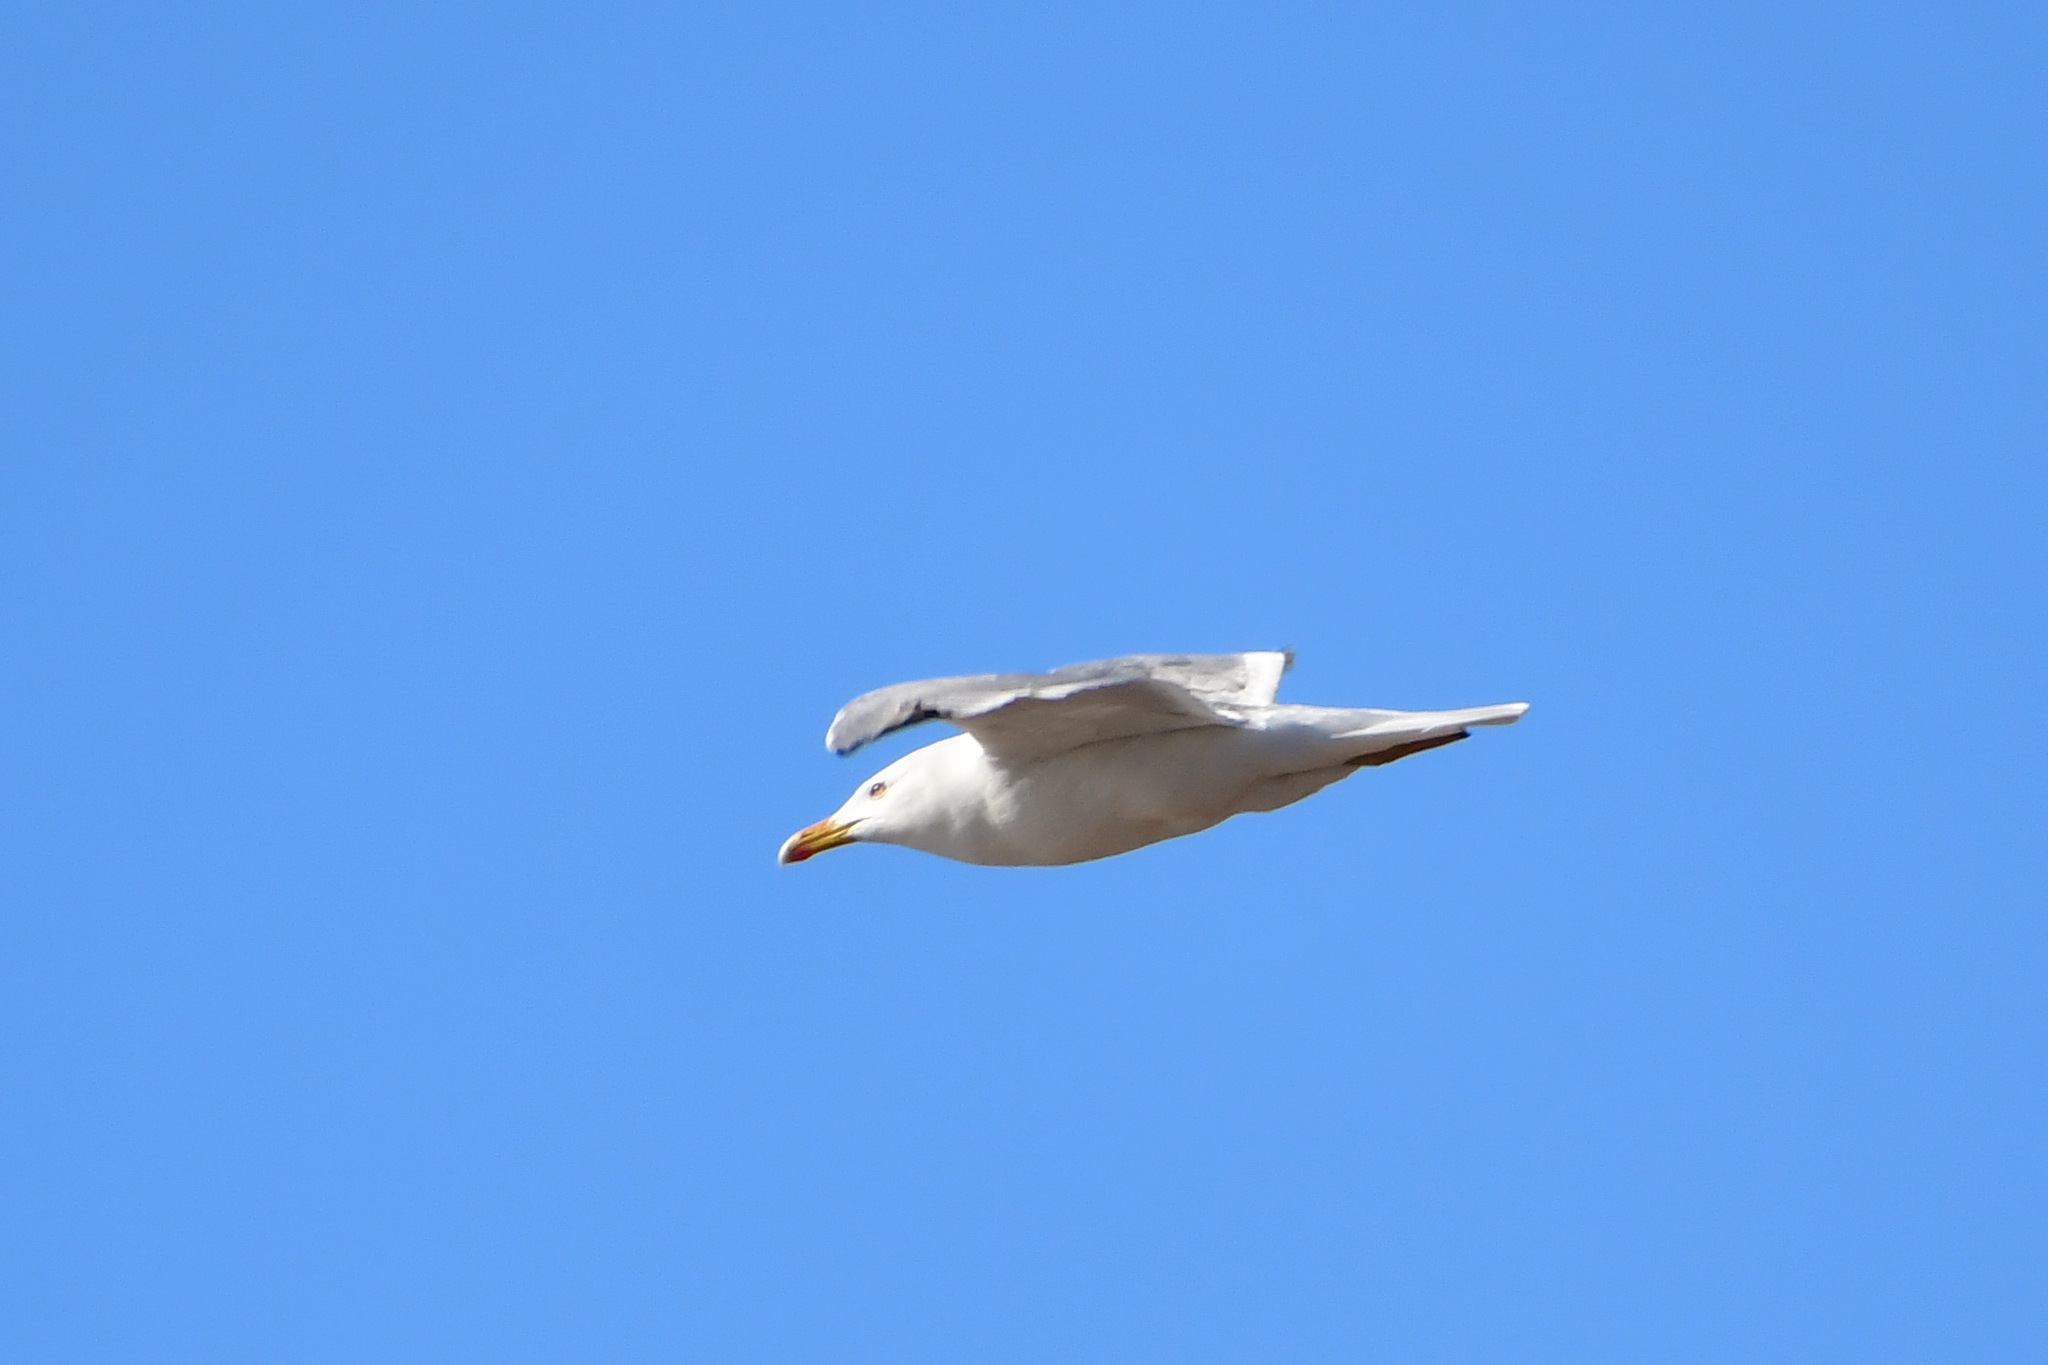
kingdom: Animalia
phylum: Chordata
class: Aves
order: Charadriiformes
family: Laridae
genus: Larus
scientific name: Larus argentatus
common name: Herring gull
